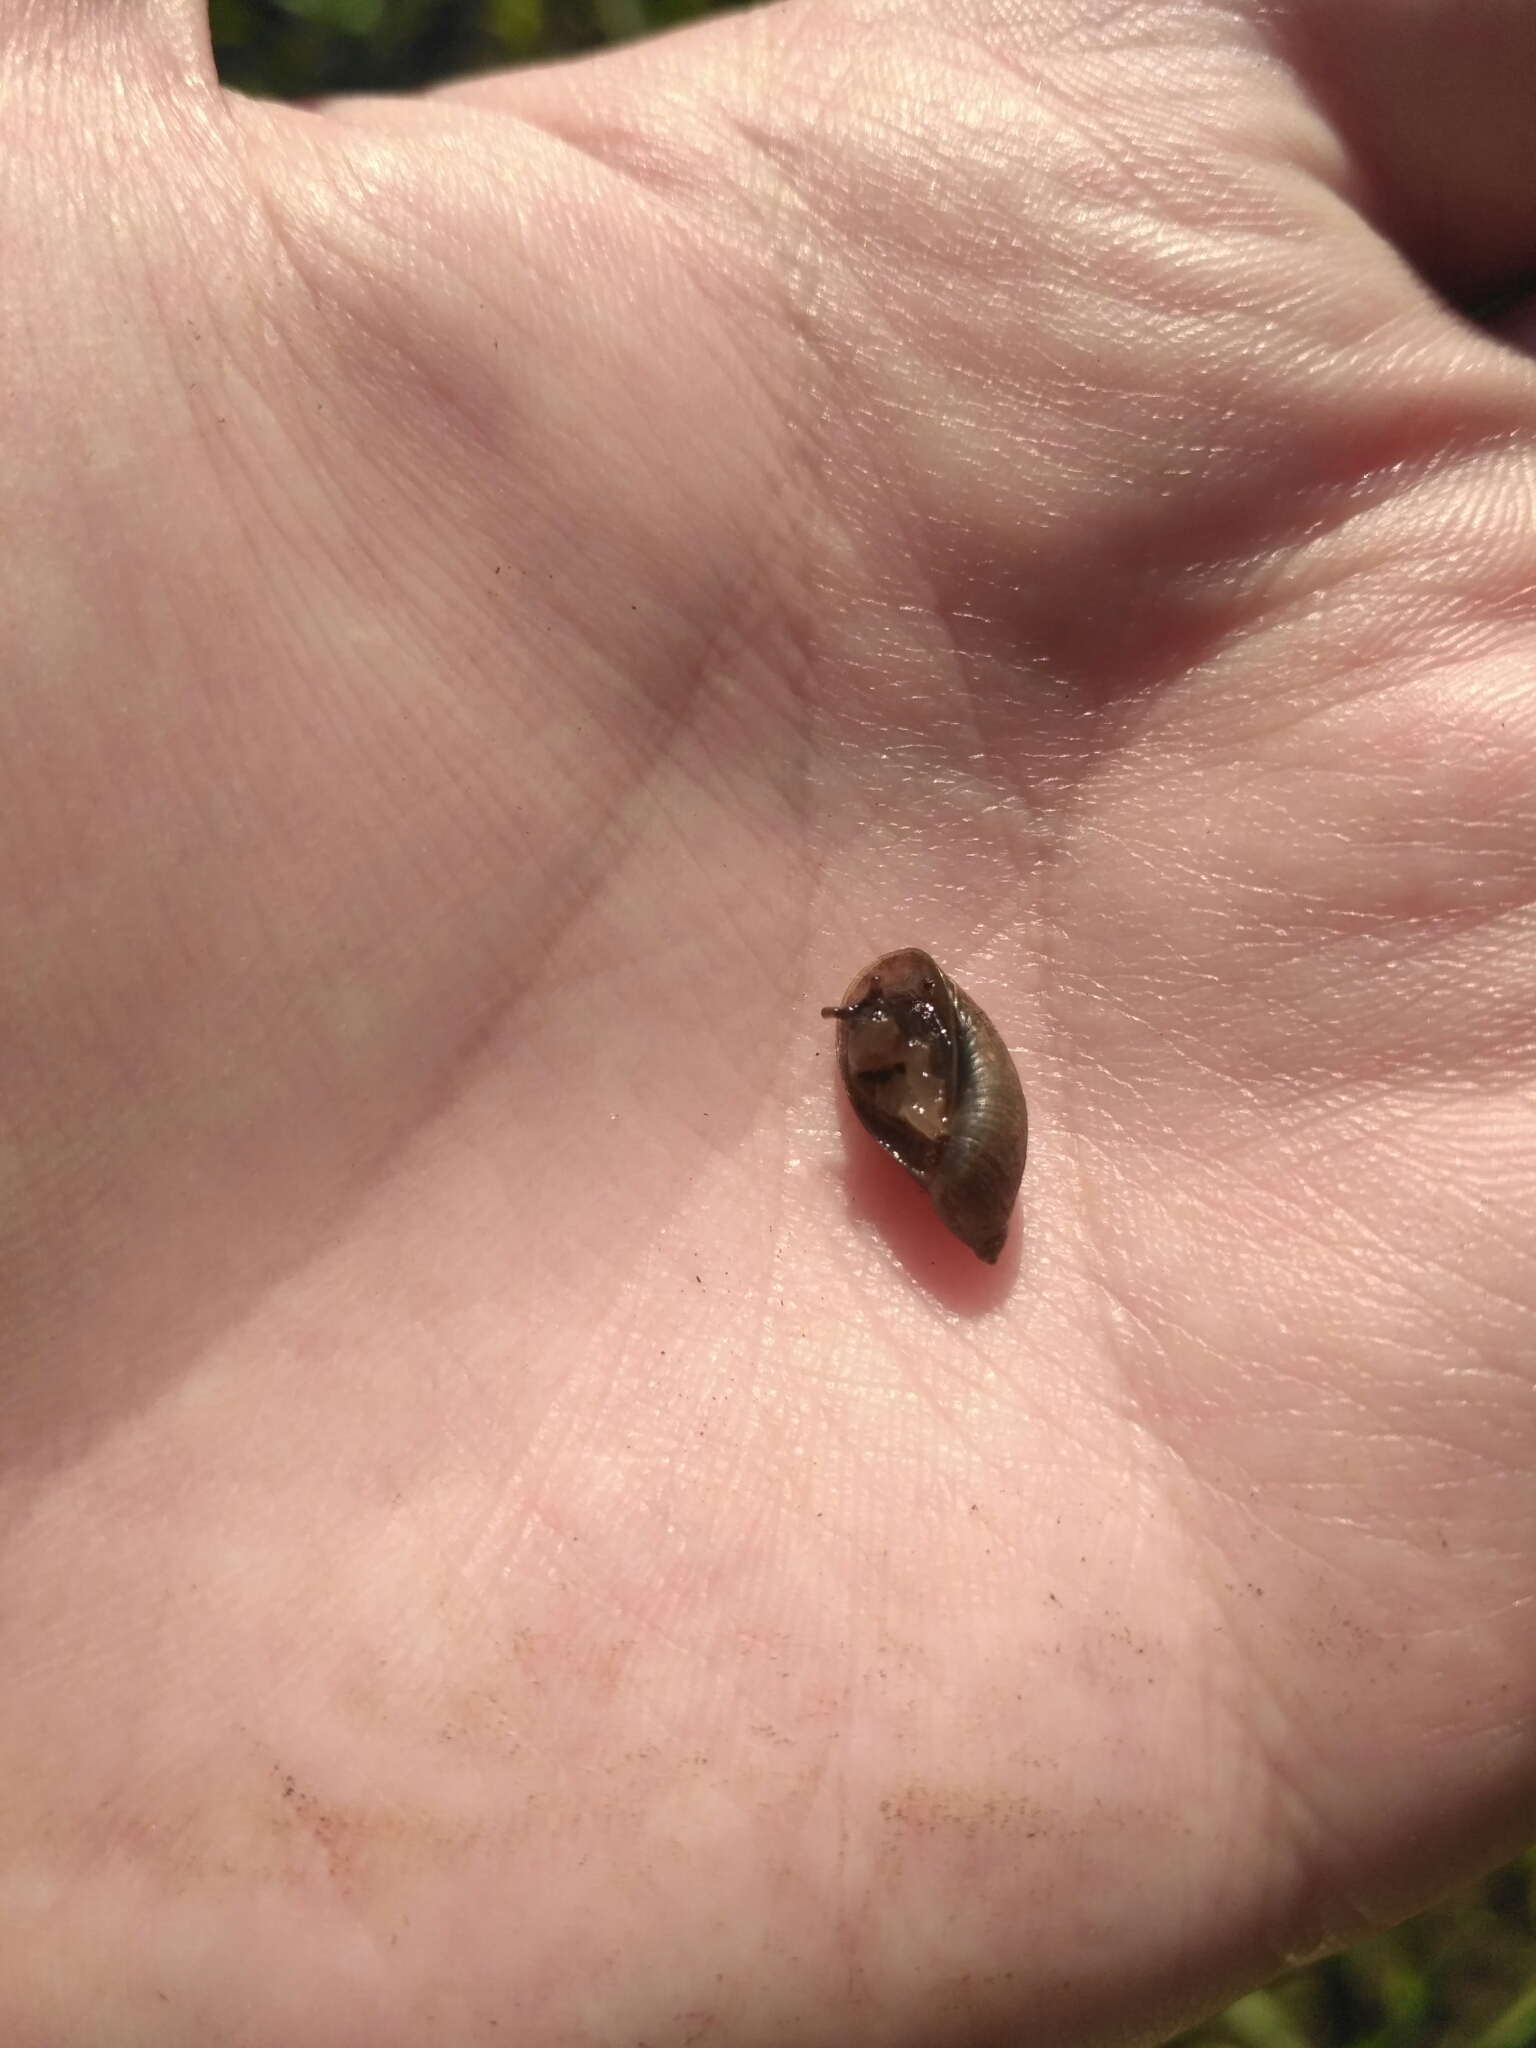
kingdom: Animalia
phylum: Mollusca
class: Gastropoda
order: Stylommatophora
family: Succineidae
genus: Oxyloma
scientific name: Oxyloma elegans
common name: Pfeiffer's amber snail
